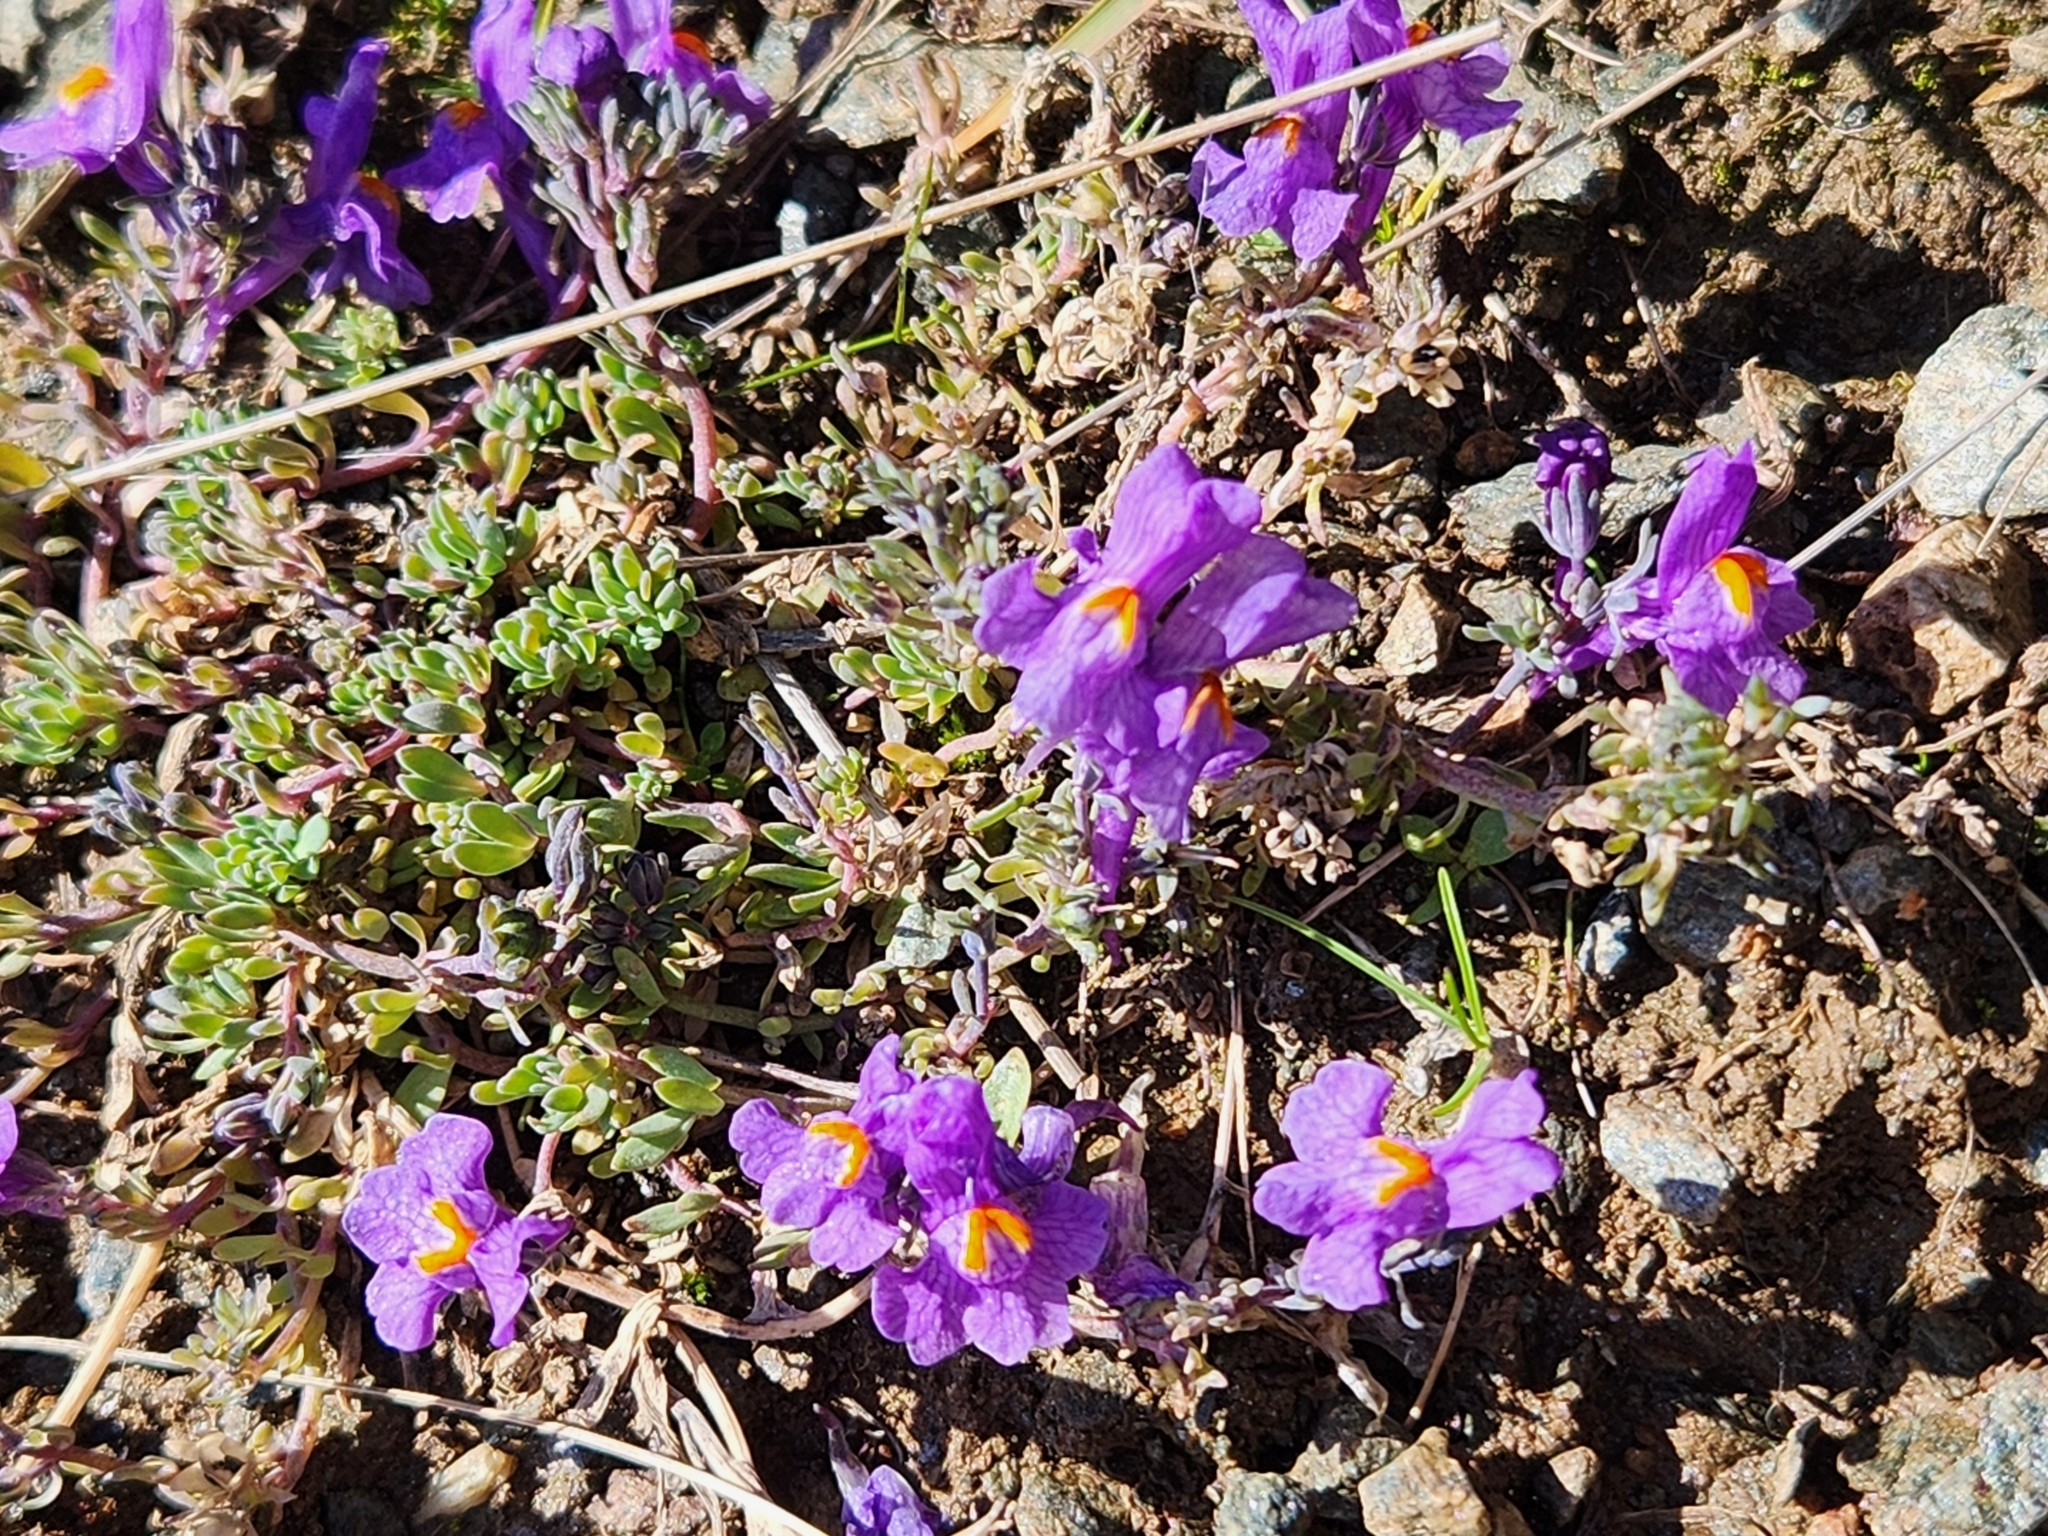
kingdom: Plantae
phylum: Tracheophyta
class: Magnoliopsida
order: Lamiales
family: Plantaginaceae
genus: Linaria
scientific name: Linaria alpina
